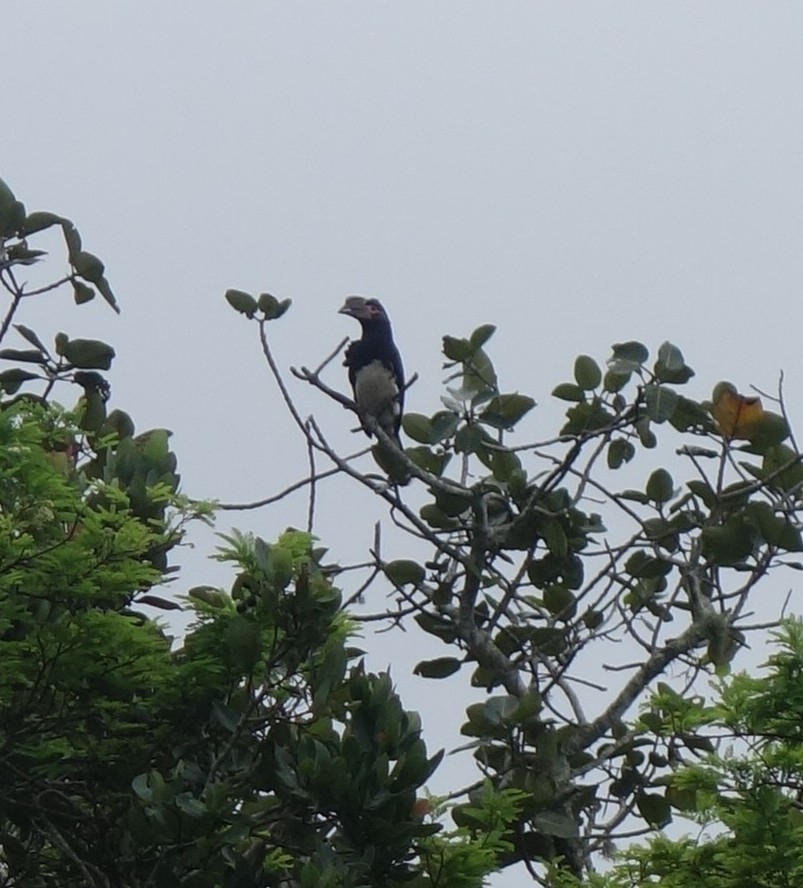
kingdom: Animalia
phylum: Chordata
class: Aves
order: Bucerotiformes
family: Bucerotidae
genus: Bycanistes
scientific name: Bycanistes bucinator
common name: Trumpeter hornbill
